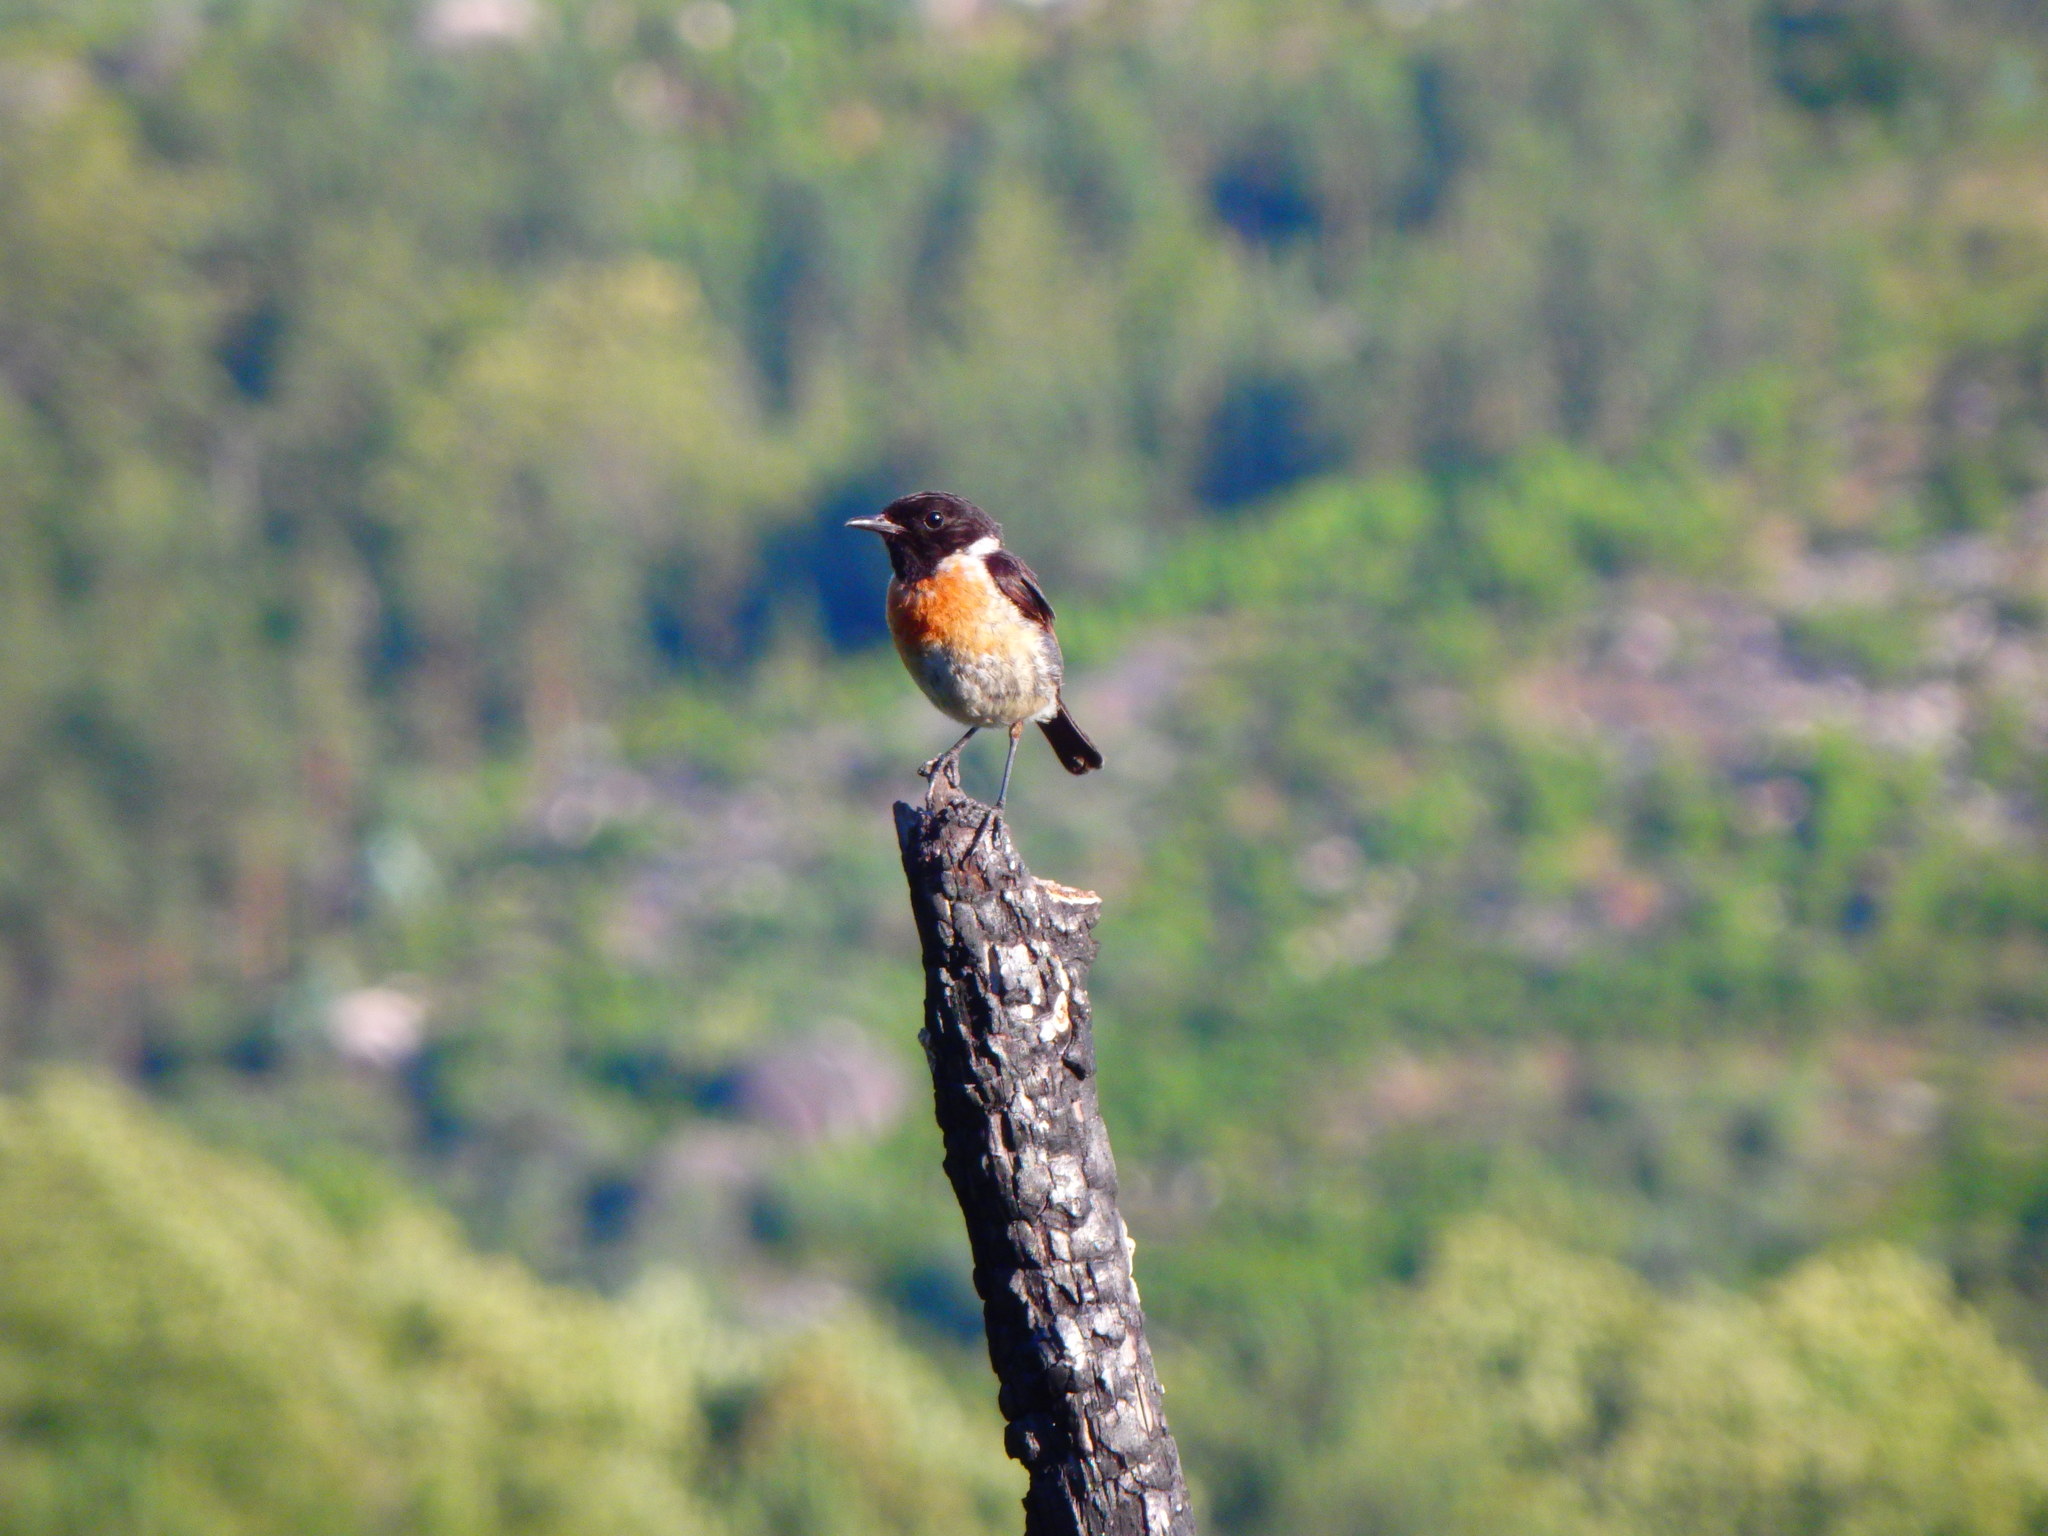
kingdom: Animalia
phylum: Chordata
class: Aves
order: Passeriformes
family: Muscicapidae
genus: Saxicola
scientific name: Saxicola rubicola
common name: European stonechat
